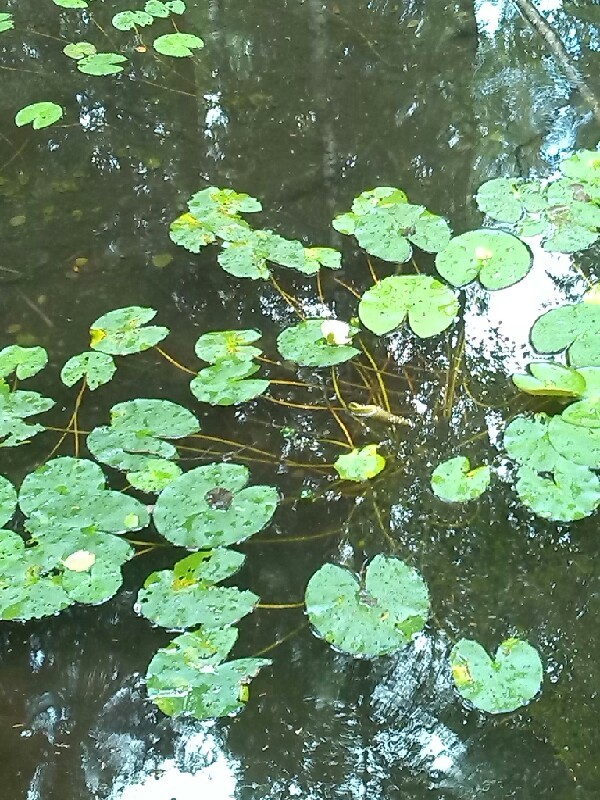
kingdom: Plantae
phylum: Tracheophyta
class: Magnoliopsida
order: Nymphaeales
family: Nymphaeaceae
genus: Nymphaea
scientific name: Nymphaea candida
